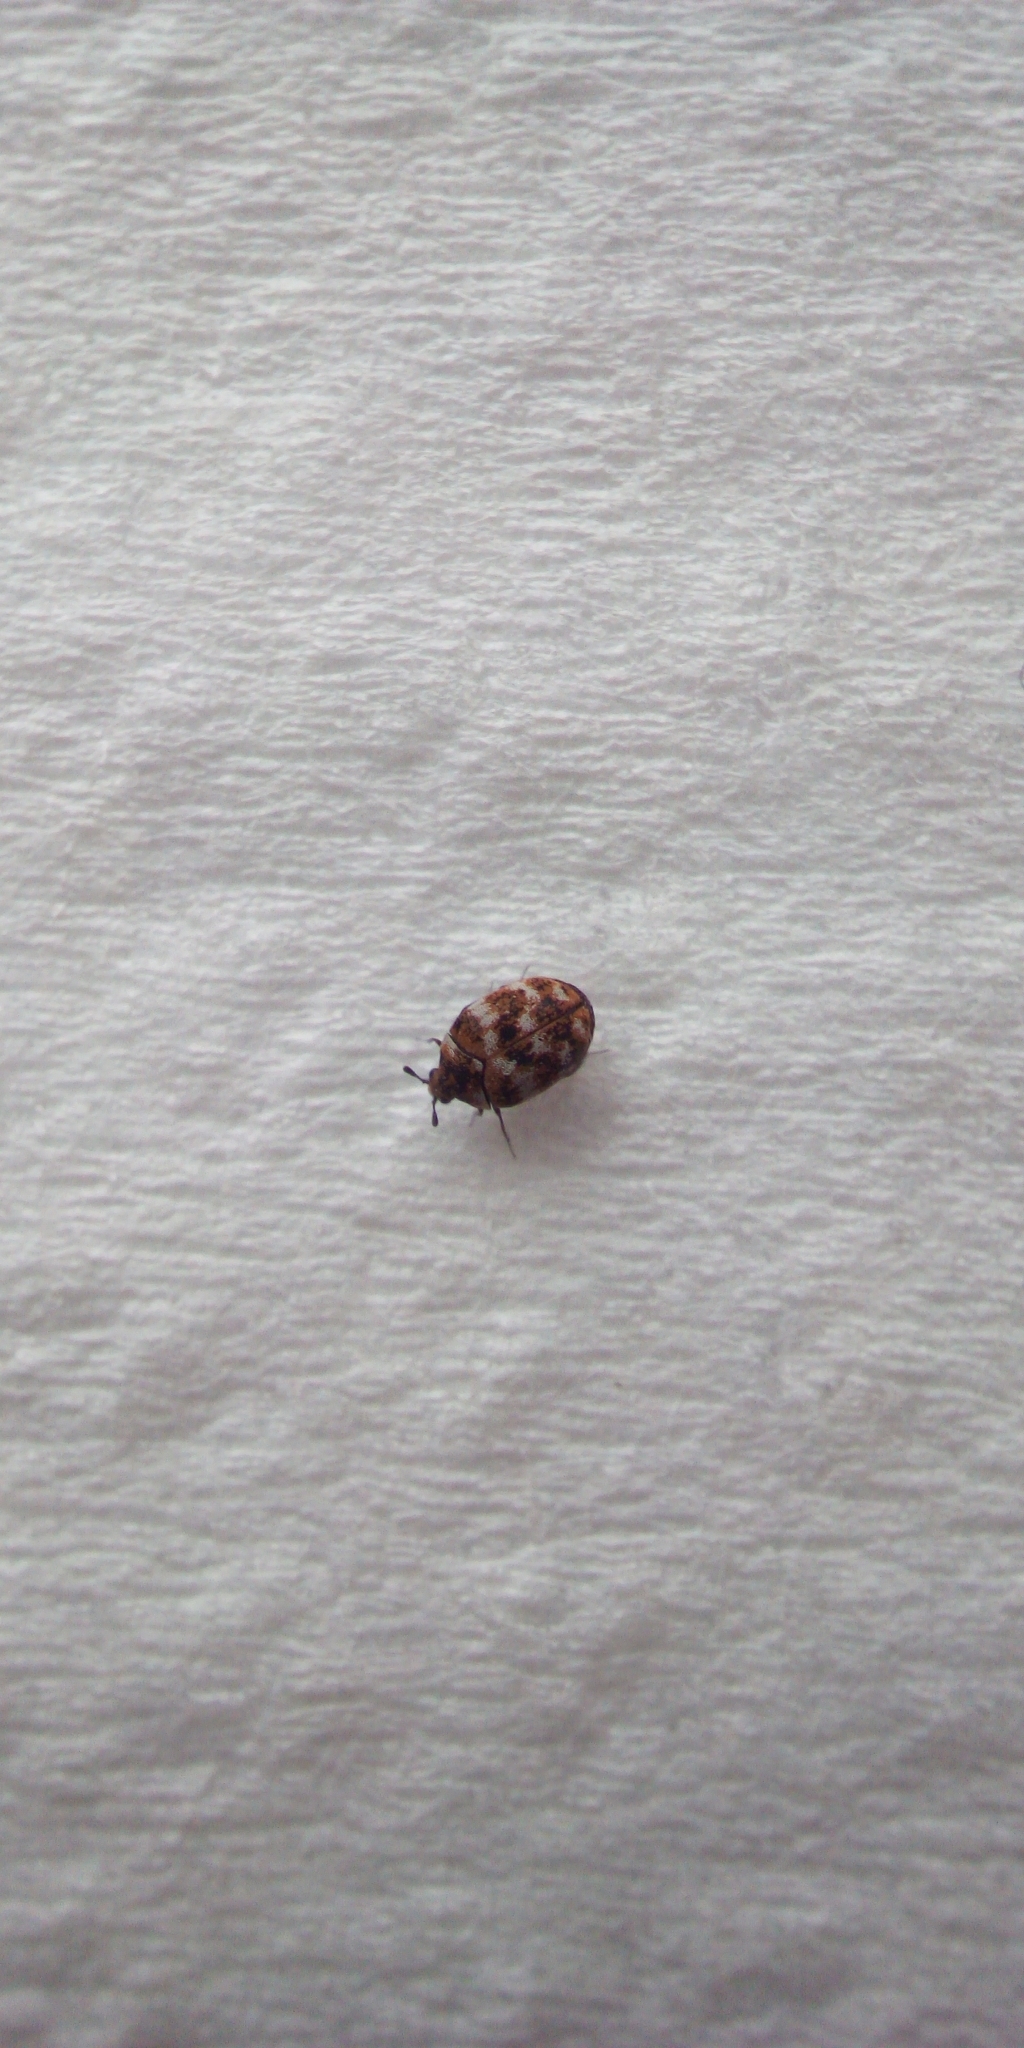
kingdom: Animalia
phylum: Arthropoda
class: Insecta
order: Coleoptera
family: Dermestidae
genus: Anthrenus
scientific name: Anthrenus verbasci
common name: Varied carpet beetle
